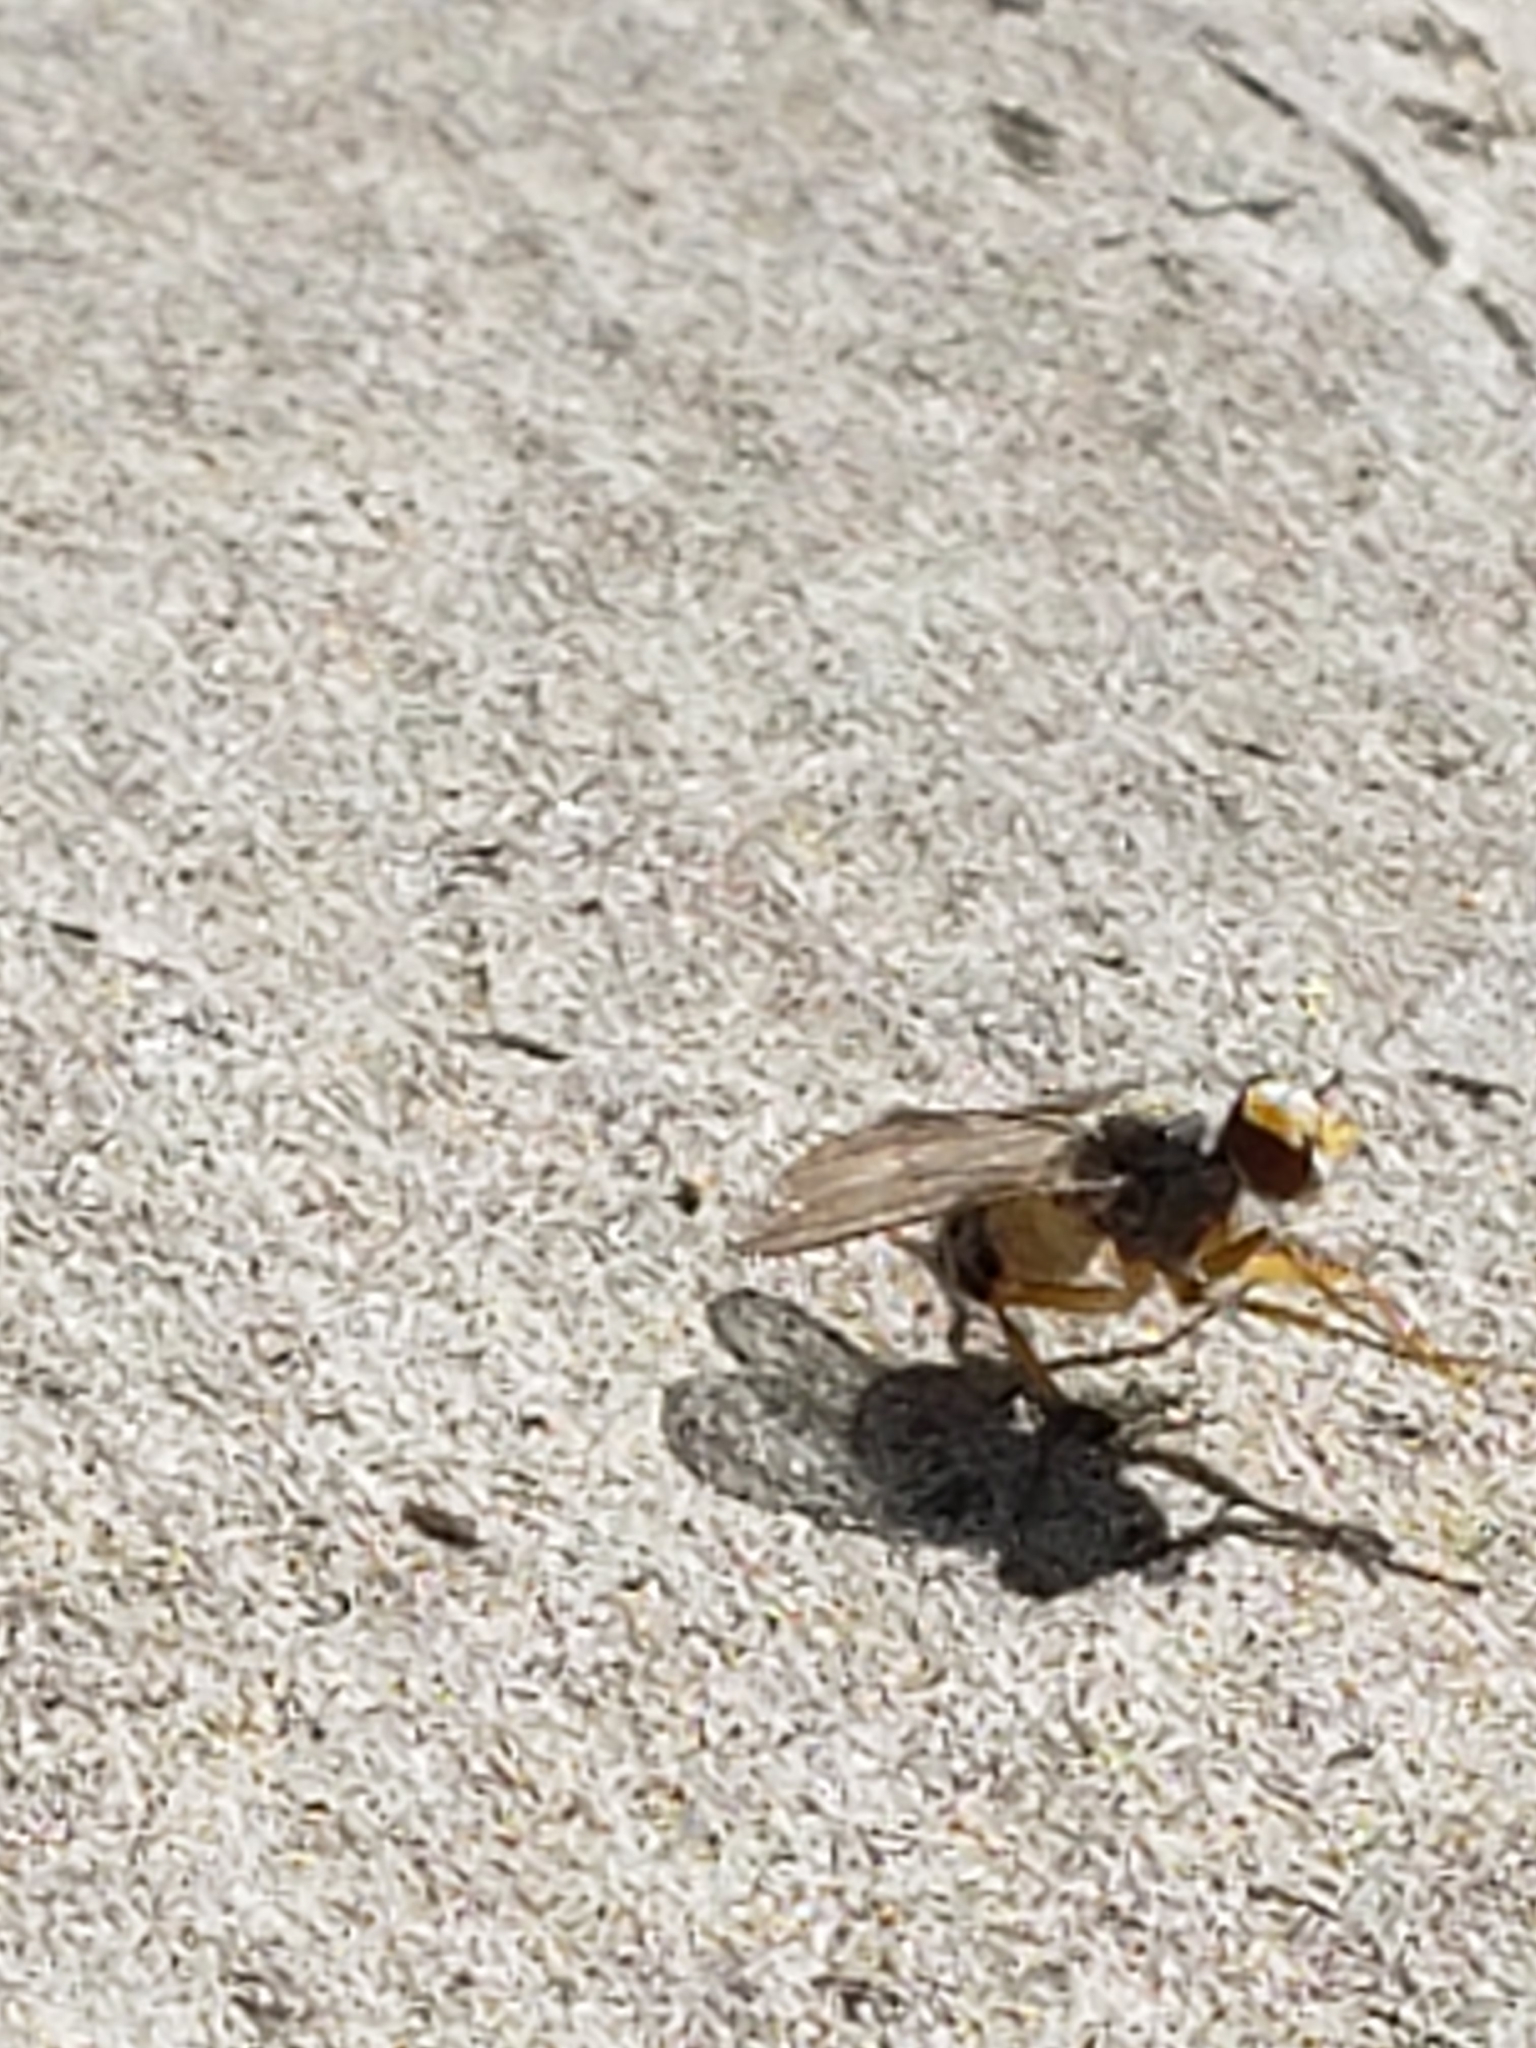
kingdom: Animalia
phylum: Arthropoda
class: Insecta
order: Diptera
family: Muscidae
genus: Neodexiopsis
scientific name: Neodexiopsis calopyga
